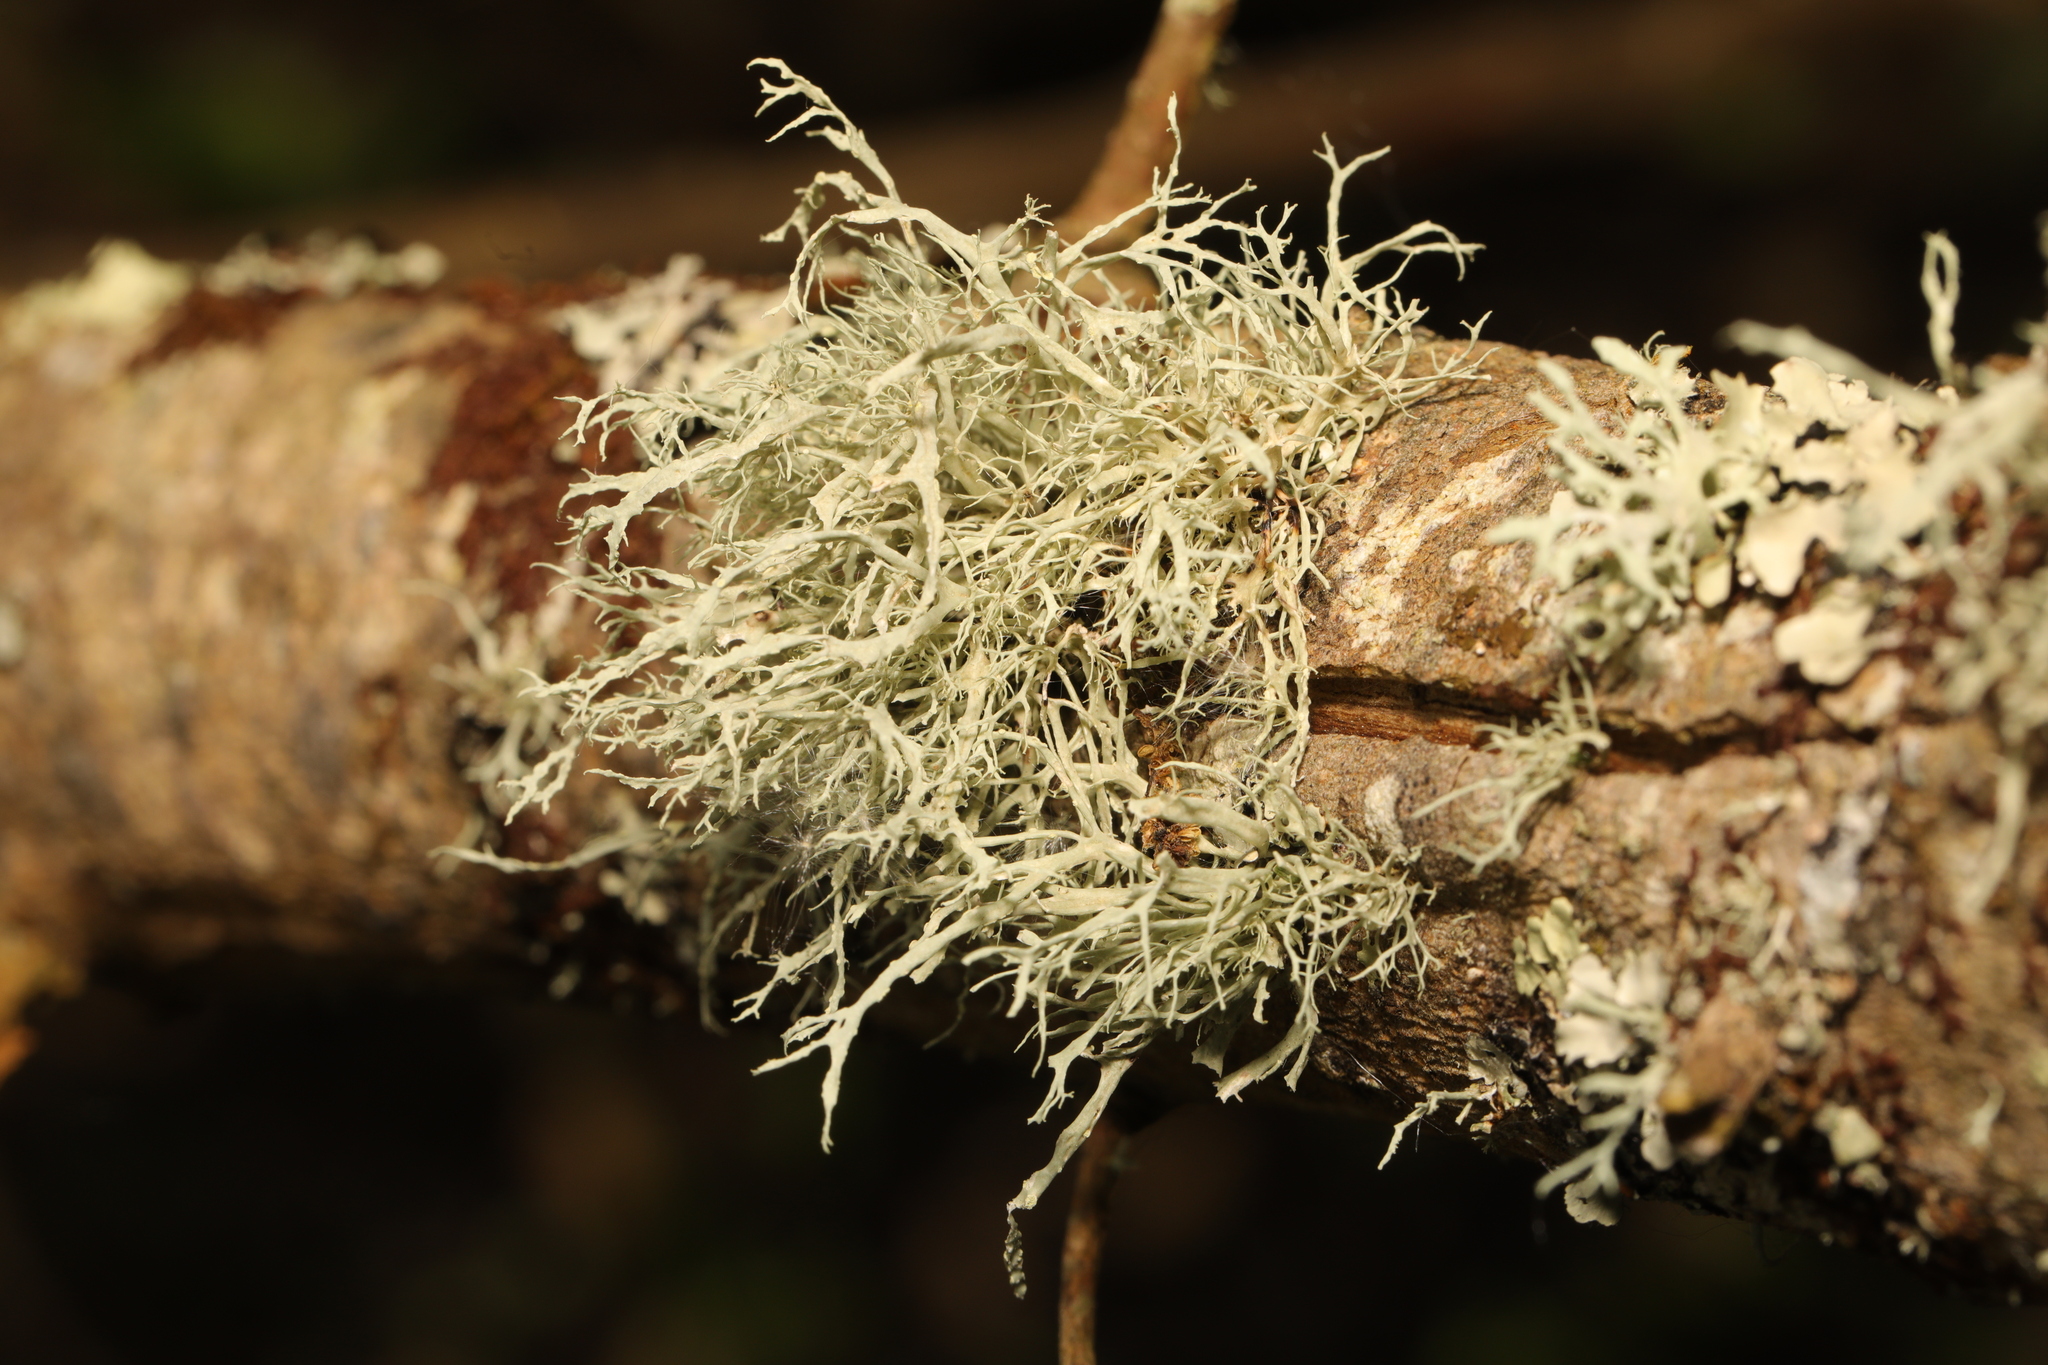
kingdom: Fungi
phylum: Ascomycota
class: Lecanoromycetes
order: Lecanorales
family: Ramalinaceae
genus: Ramalina
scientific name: Ramalina farinacea
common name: Farinose cartilage lichen
